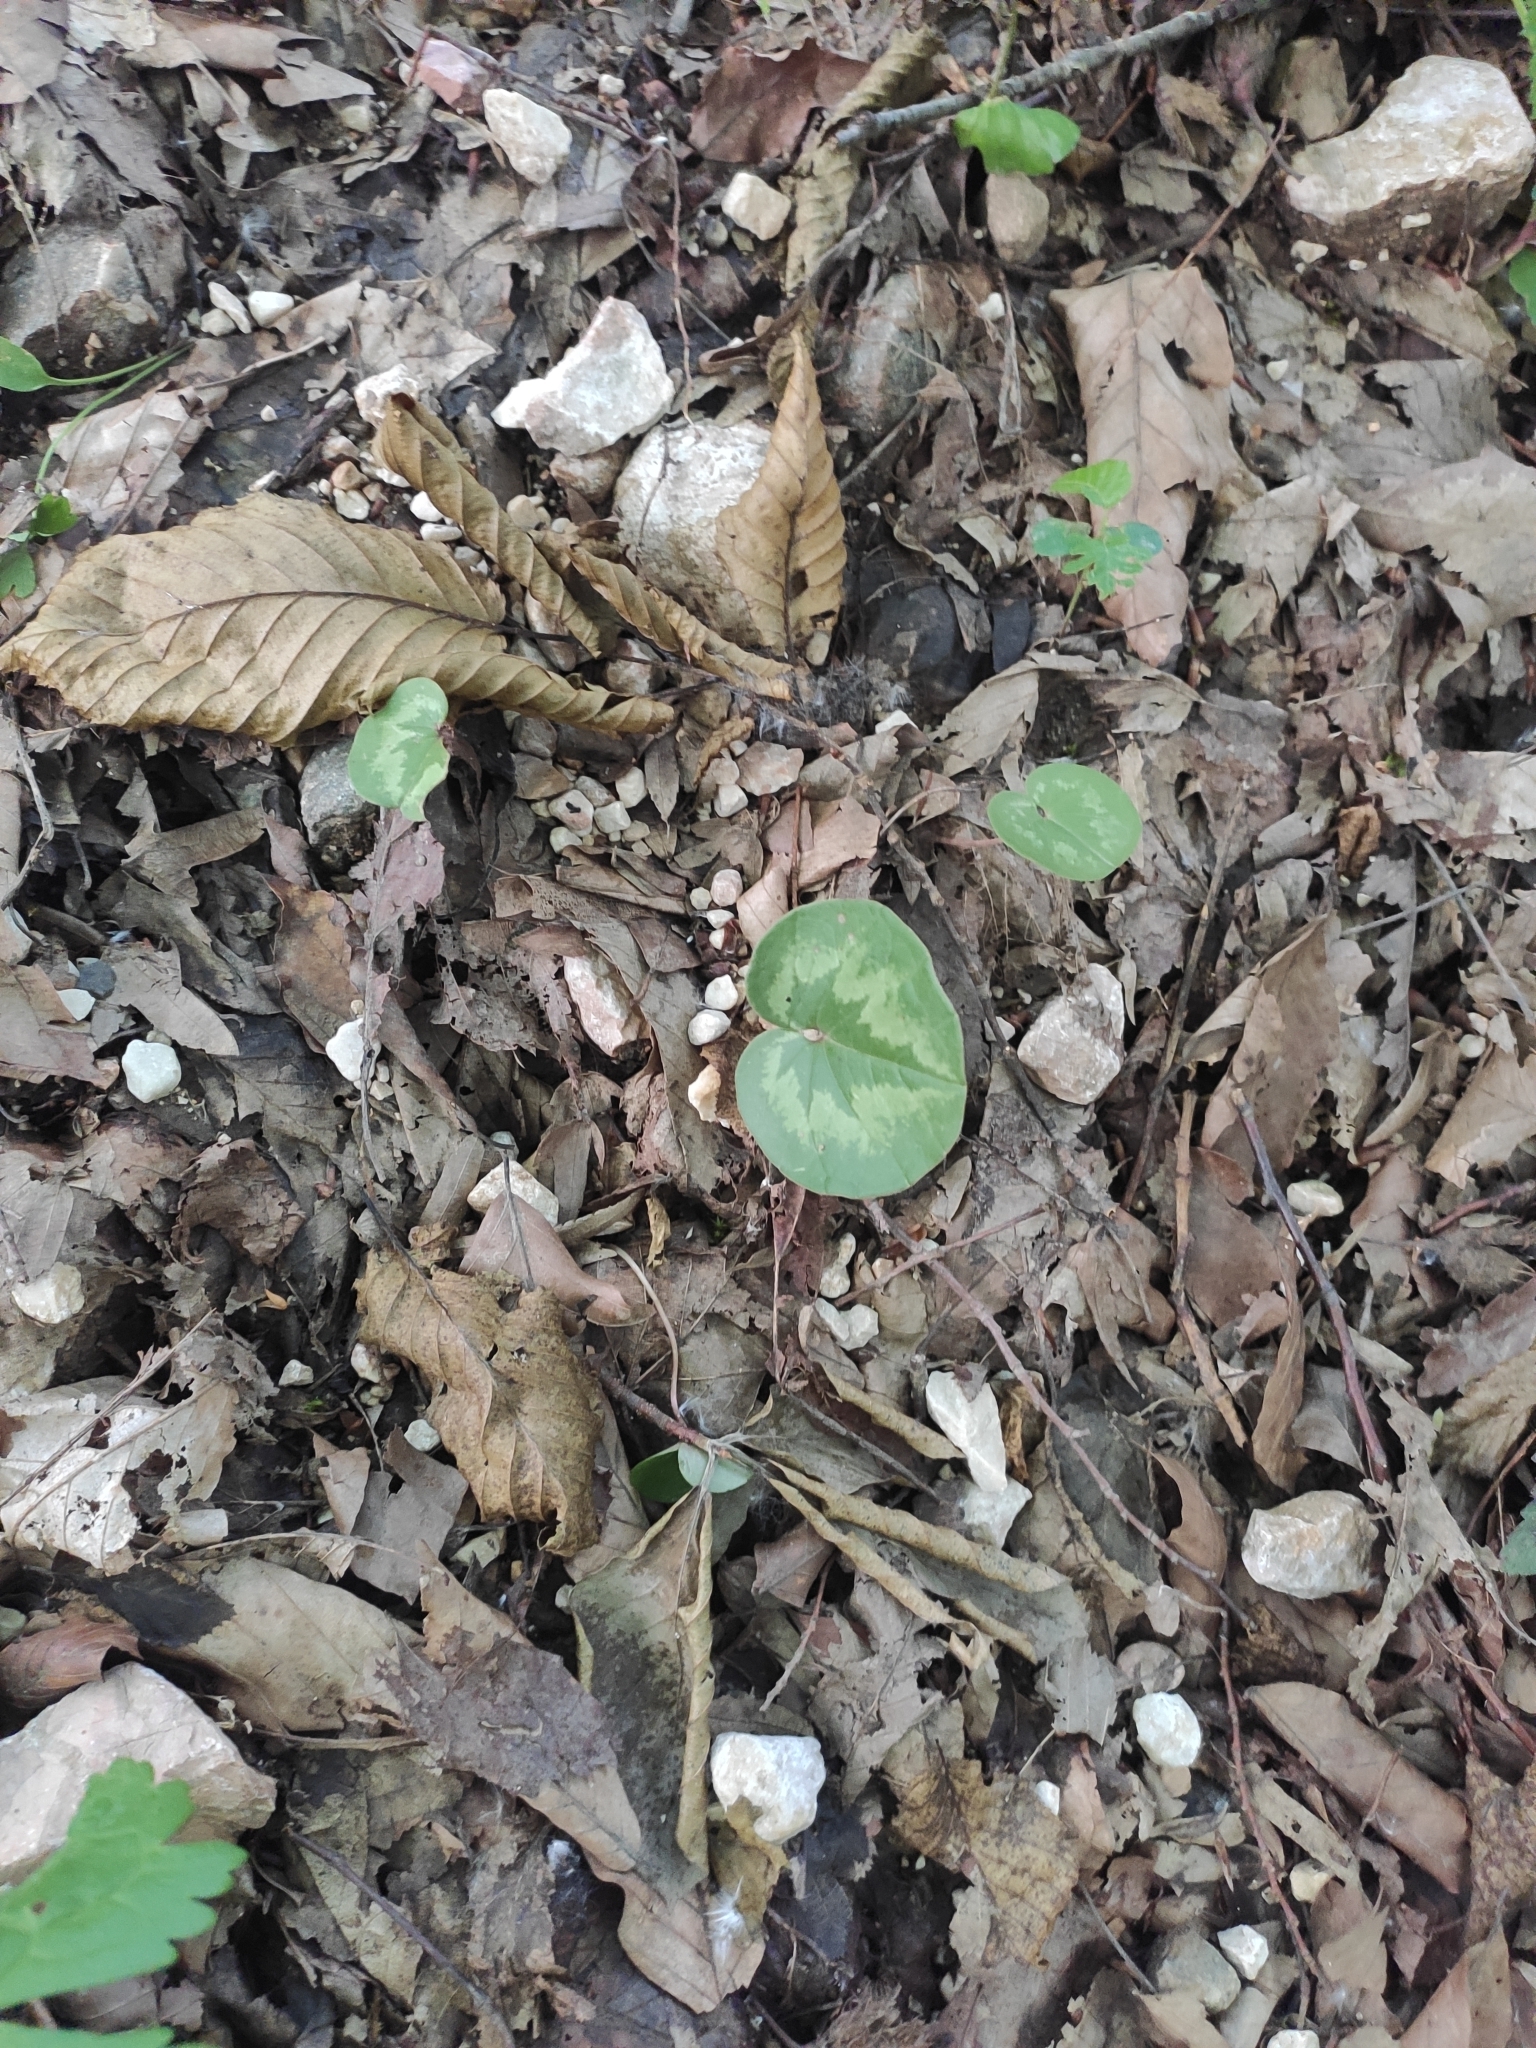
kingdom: Plantae
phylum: Tracheophyta
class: Magnoliopsida
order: Ericales
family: Primulaceae
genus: Cyclamen
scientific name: Cyclamen coum
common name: Eastern sowbread
